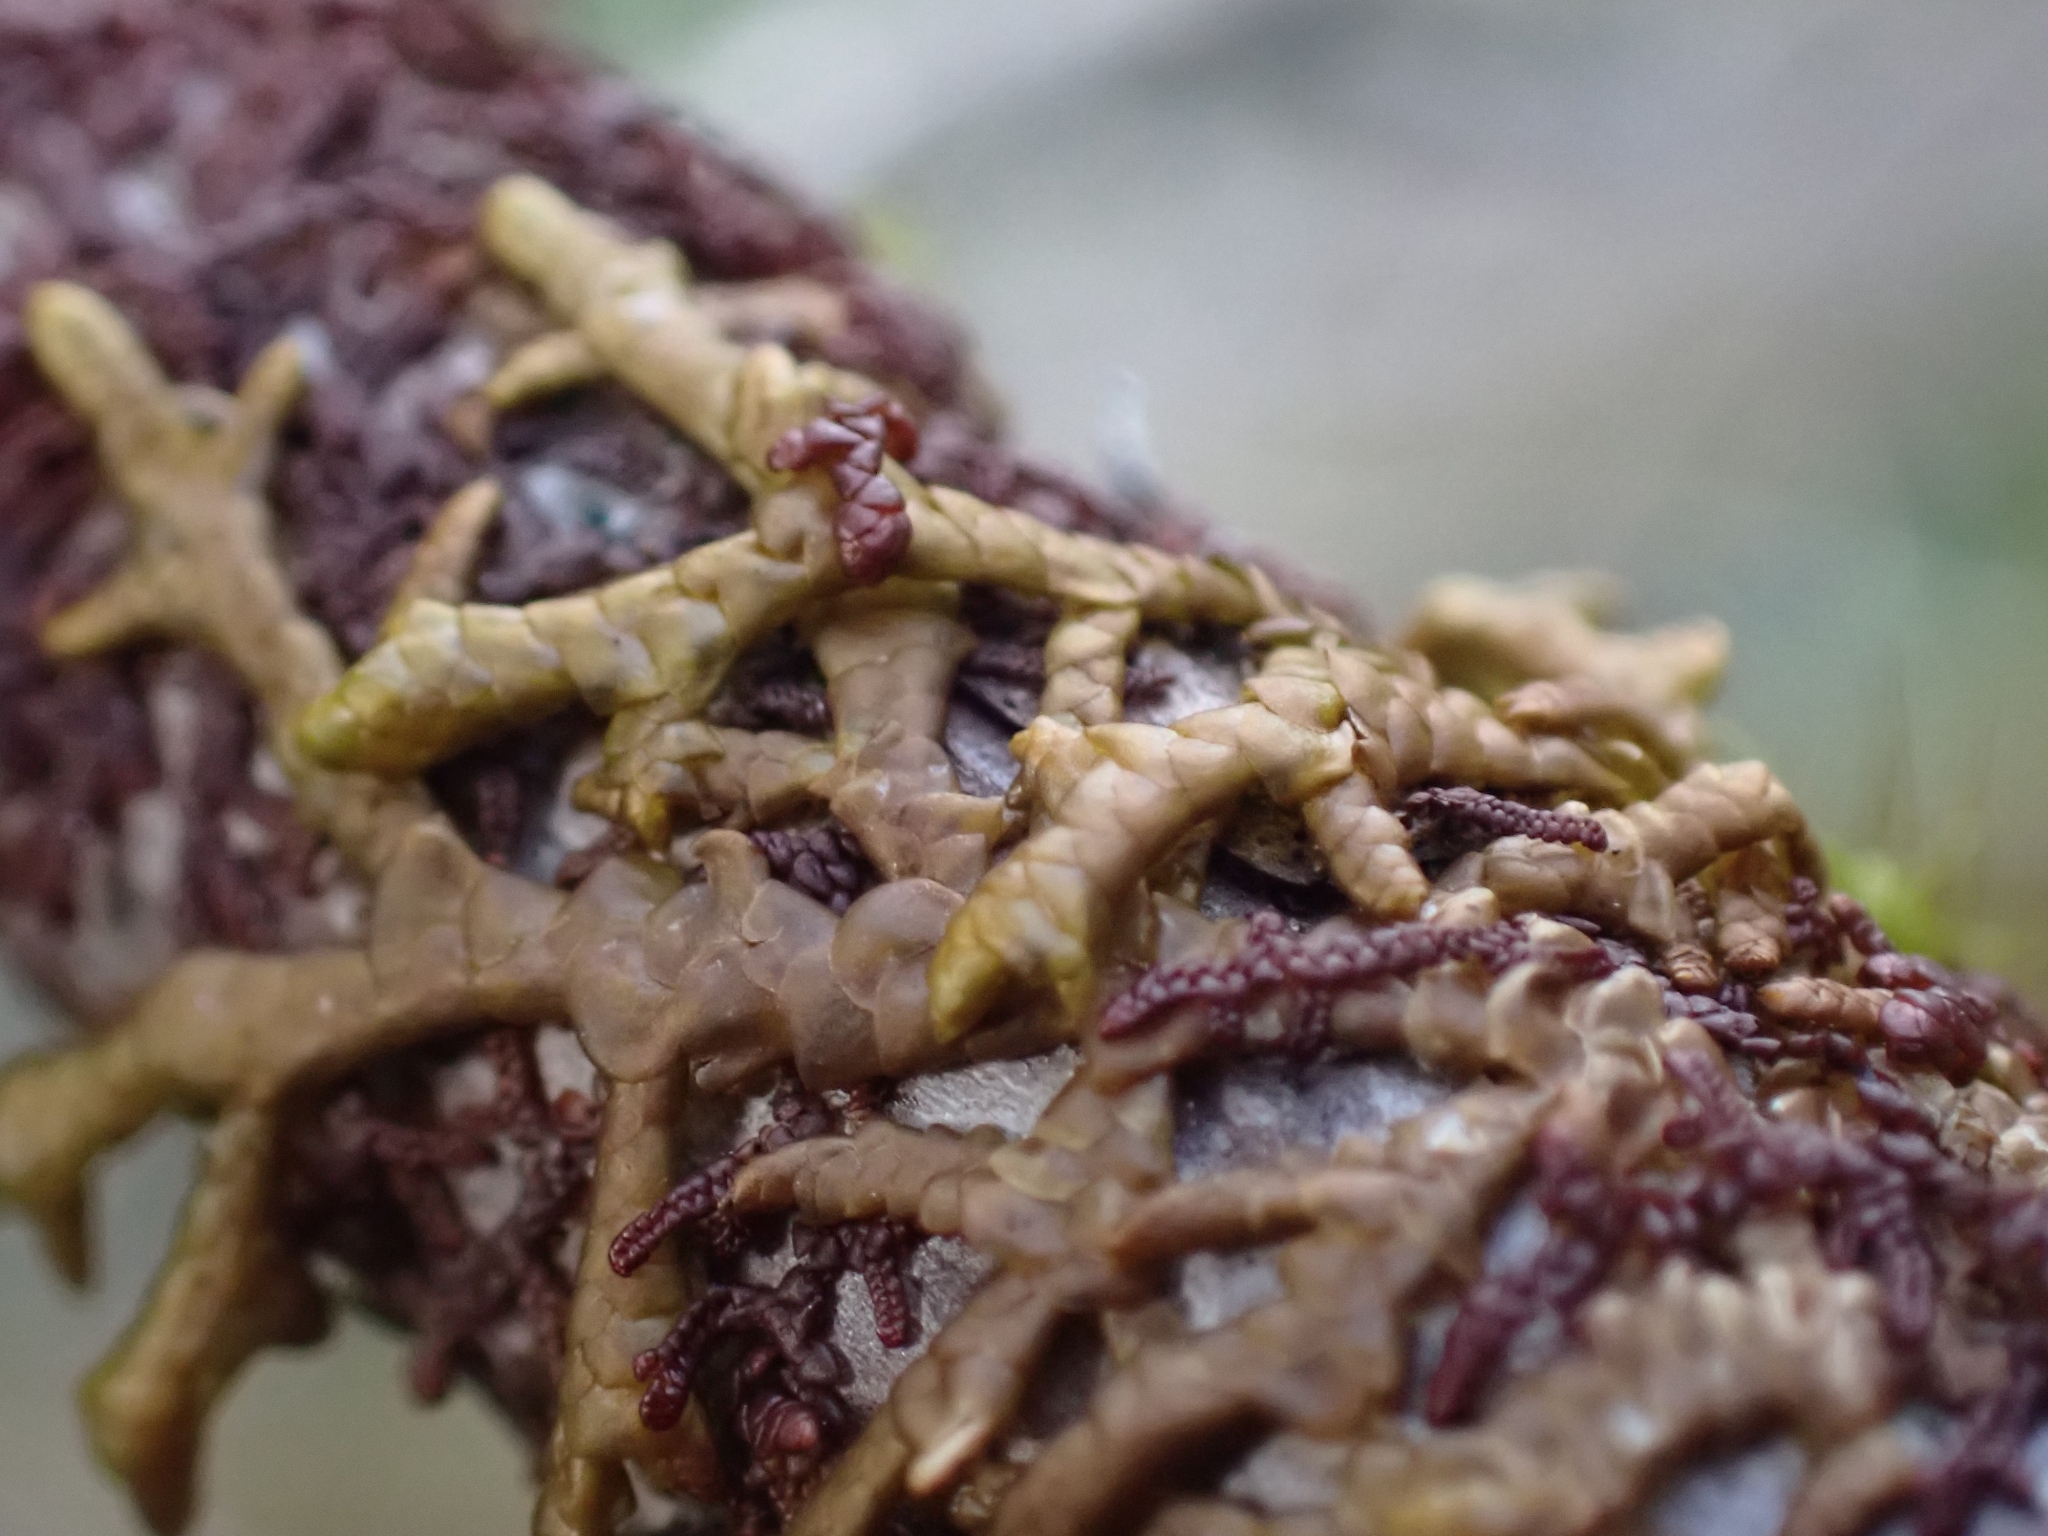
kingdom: Plantae
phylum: Marchantiophyta
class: Jungermanniopsida
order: Porellales
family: Porellaceae
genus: Porella
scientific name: Porella navicularis
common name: Tree ruffle liverwort
